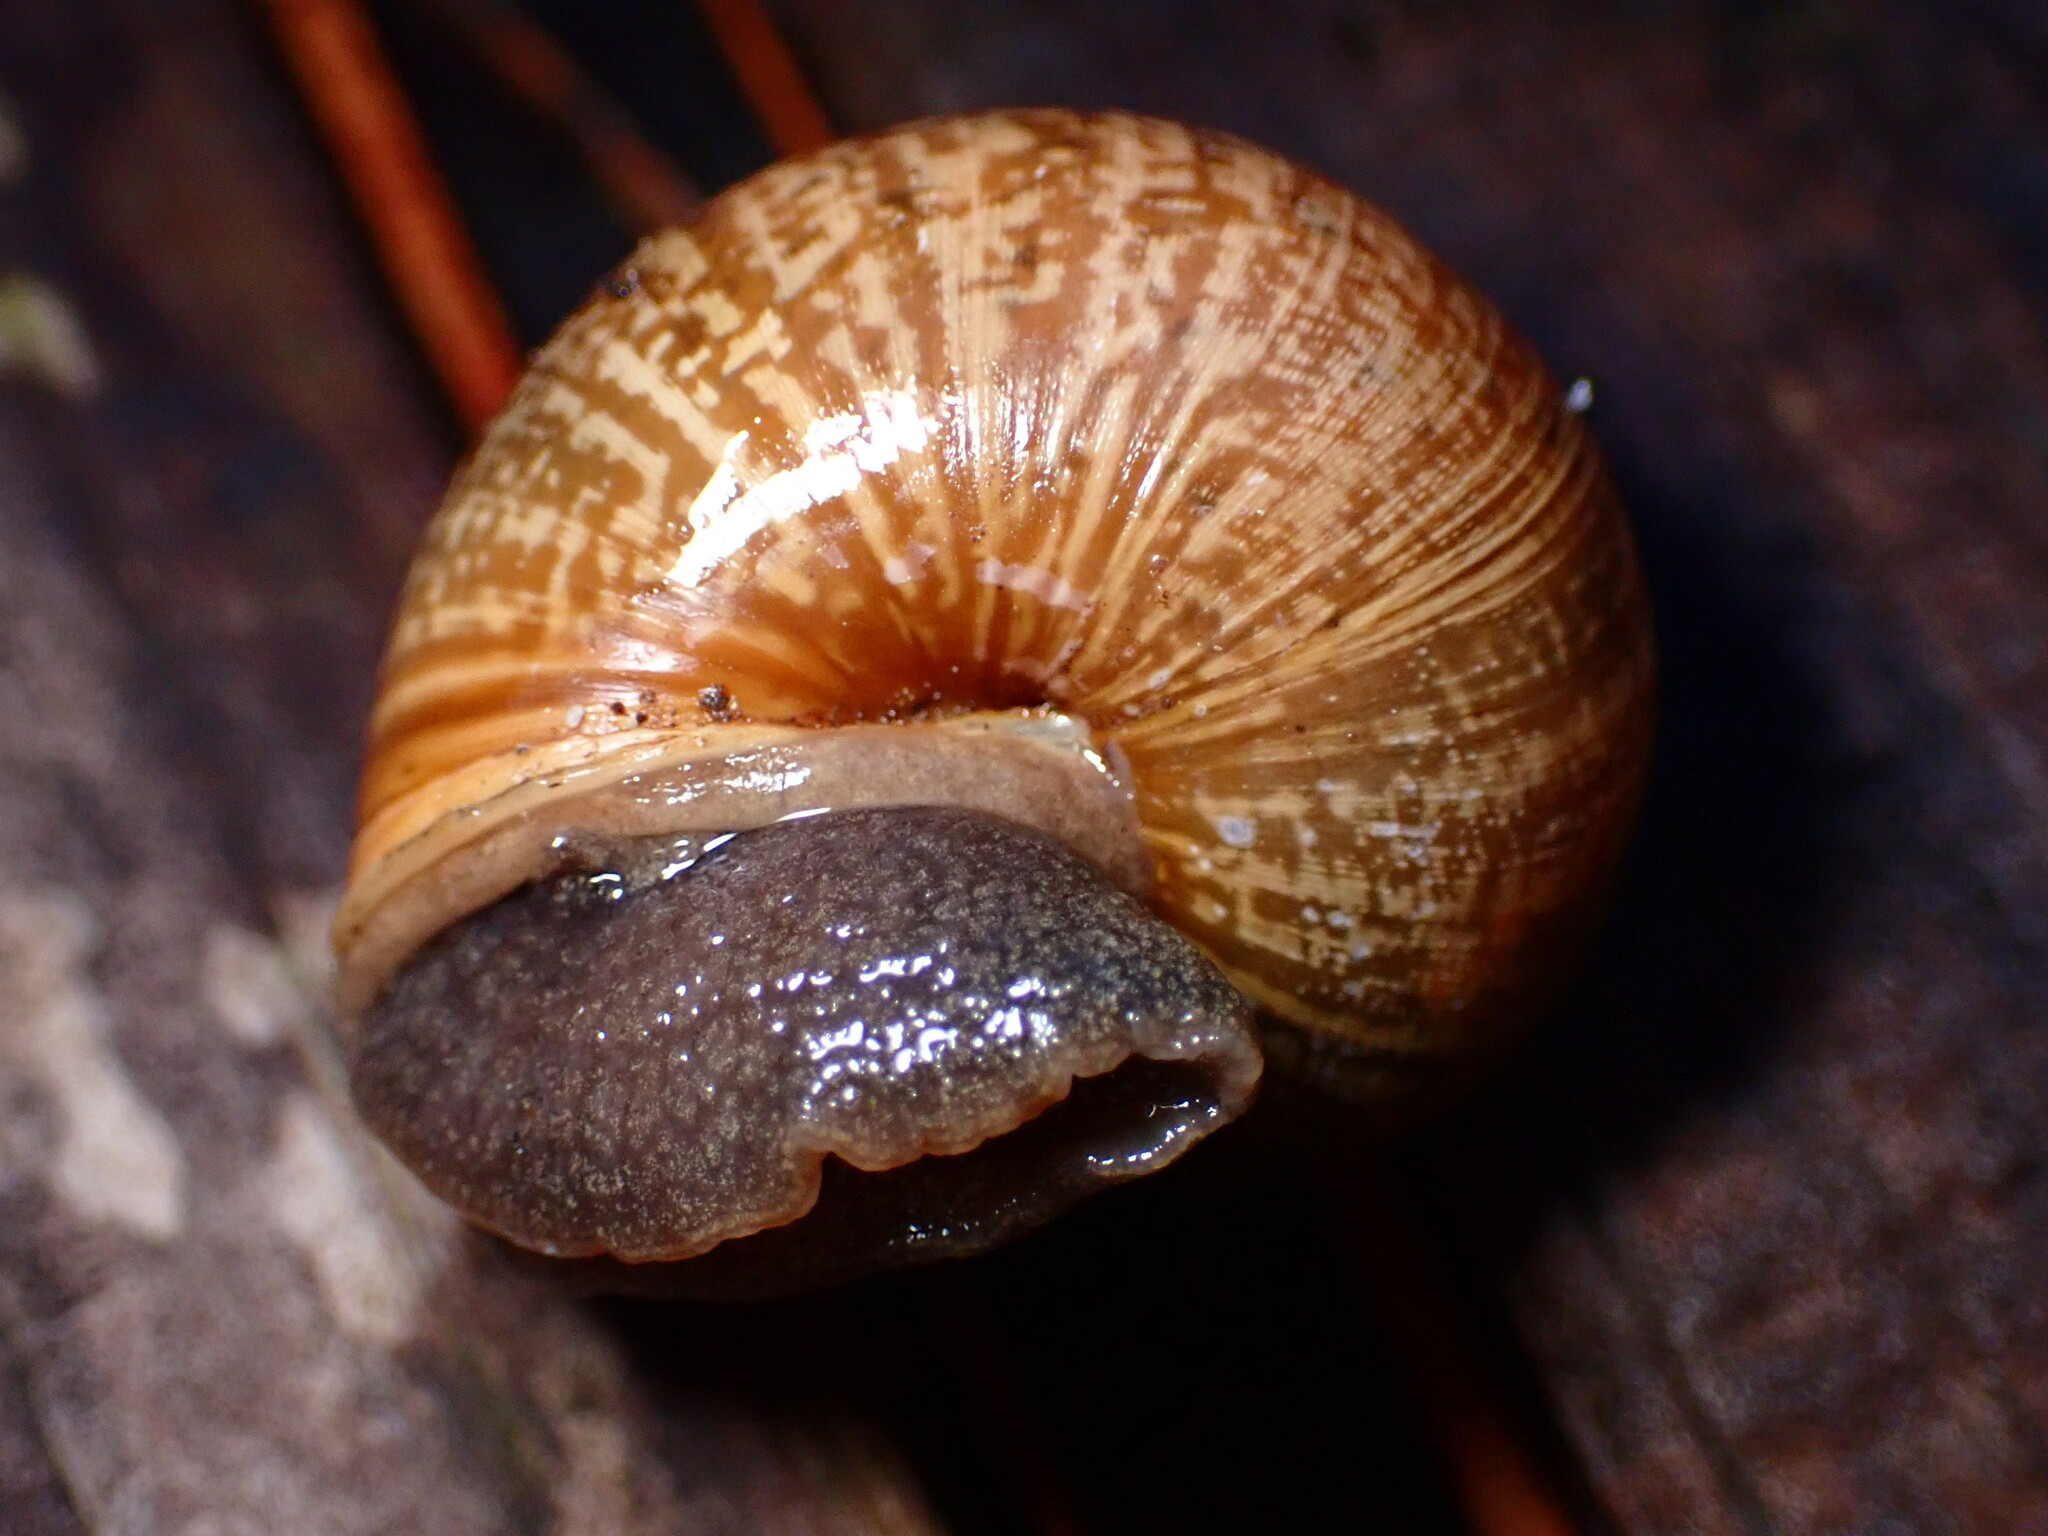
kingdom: Animalia
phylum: Mollusca
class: Gastropoda
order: Stylommatophora
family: Xanthonychidae
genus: Helminthoglypta
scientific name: Helminthoglypta nickliniana
